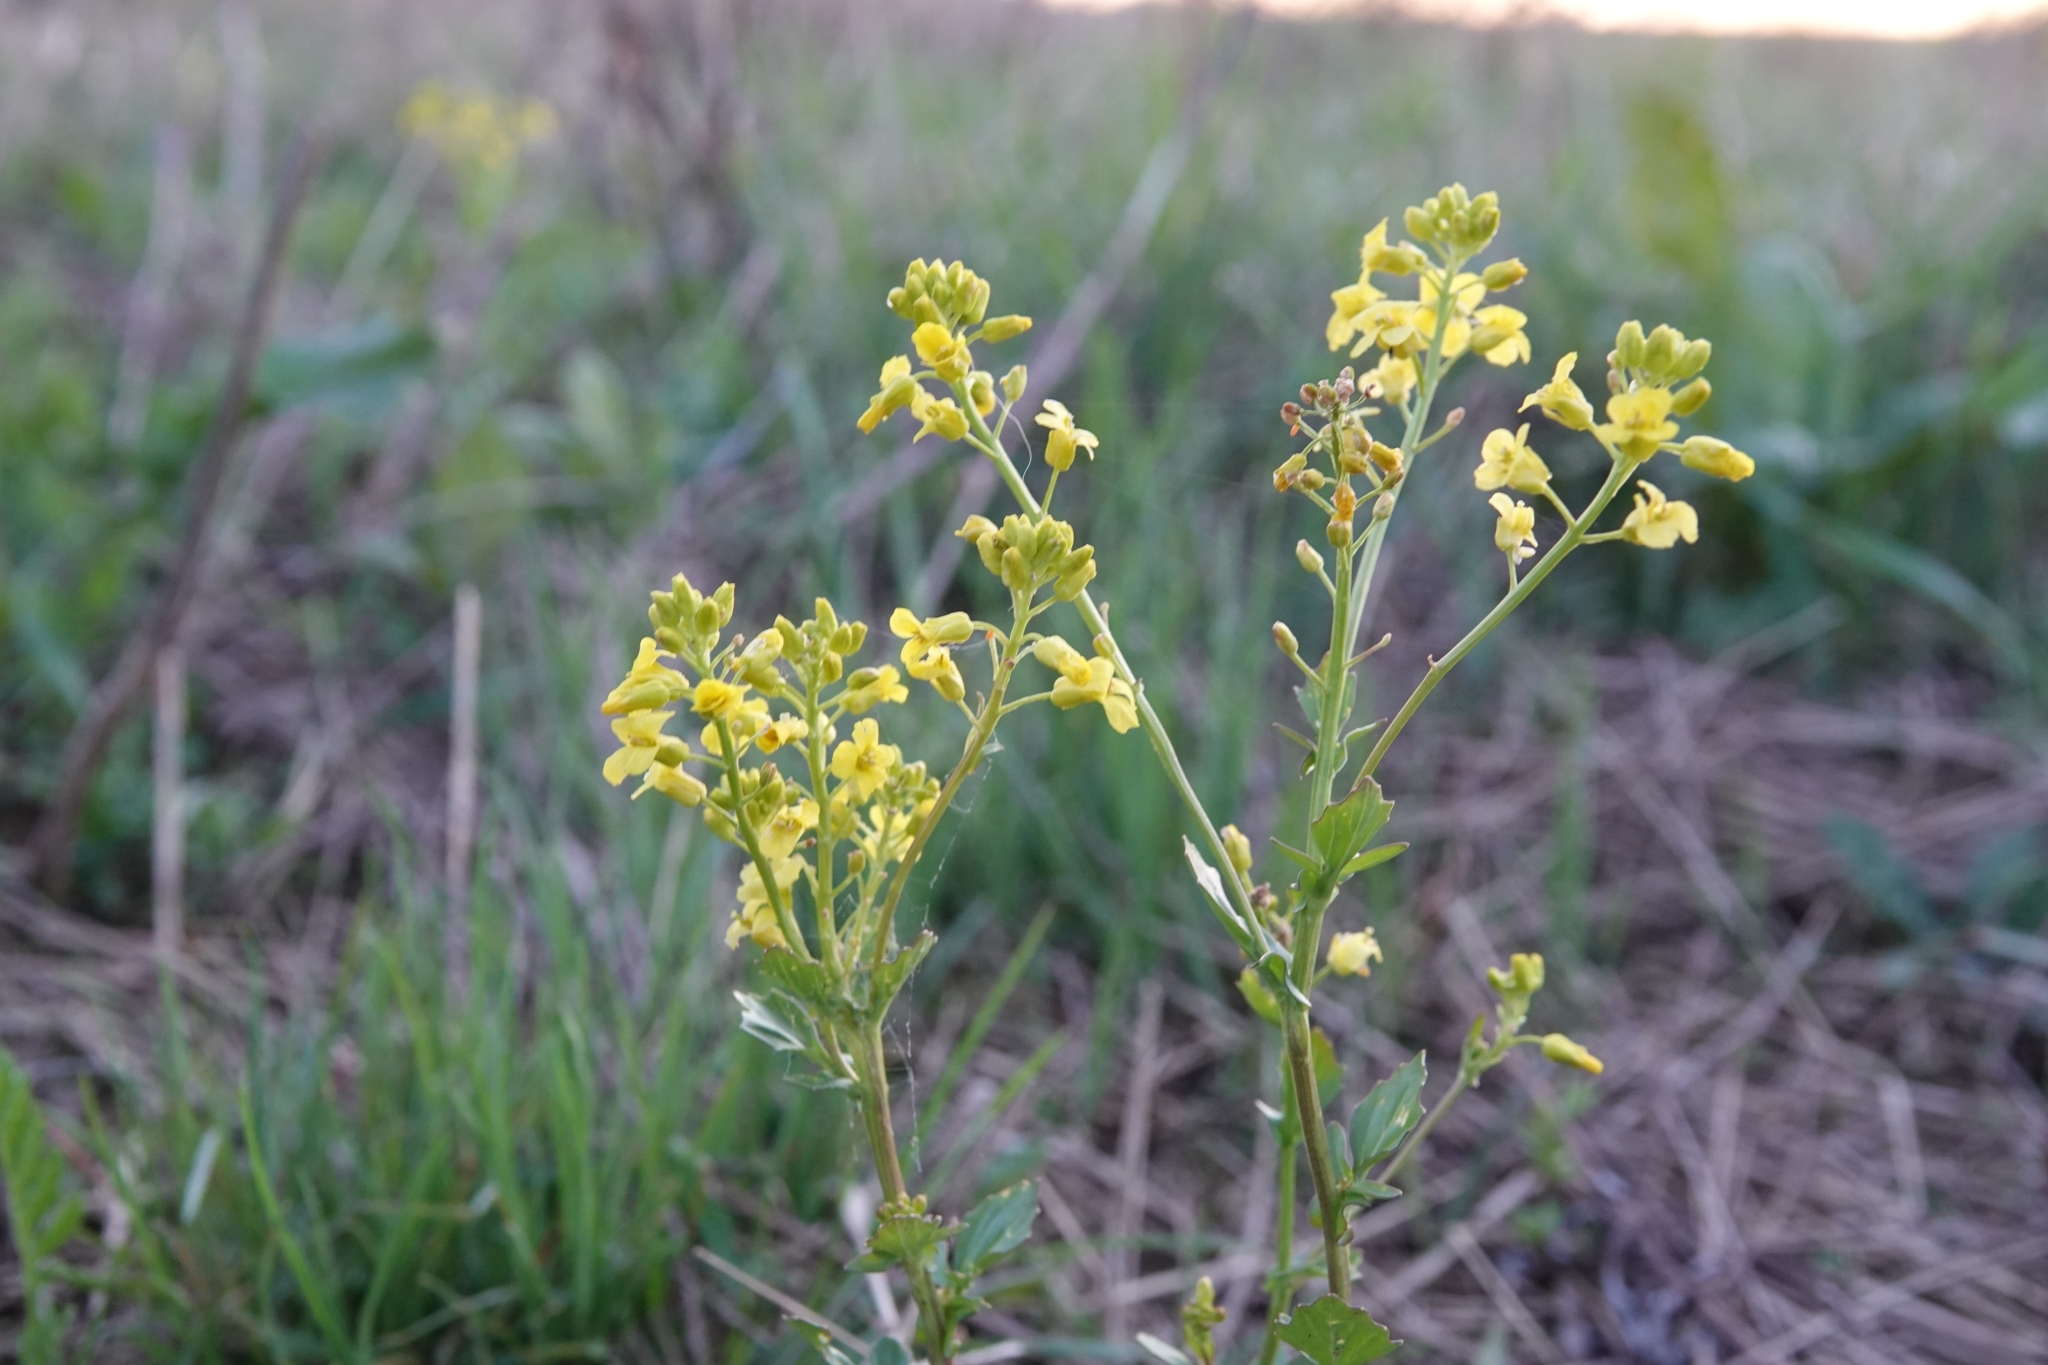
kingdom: Plantae
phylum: Tracheophyta
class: Magnoliopsida
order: Brassicales
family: Brassicaceae
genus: Barbarea
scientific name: Barbarea vulgaris
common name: Cressy-greens
